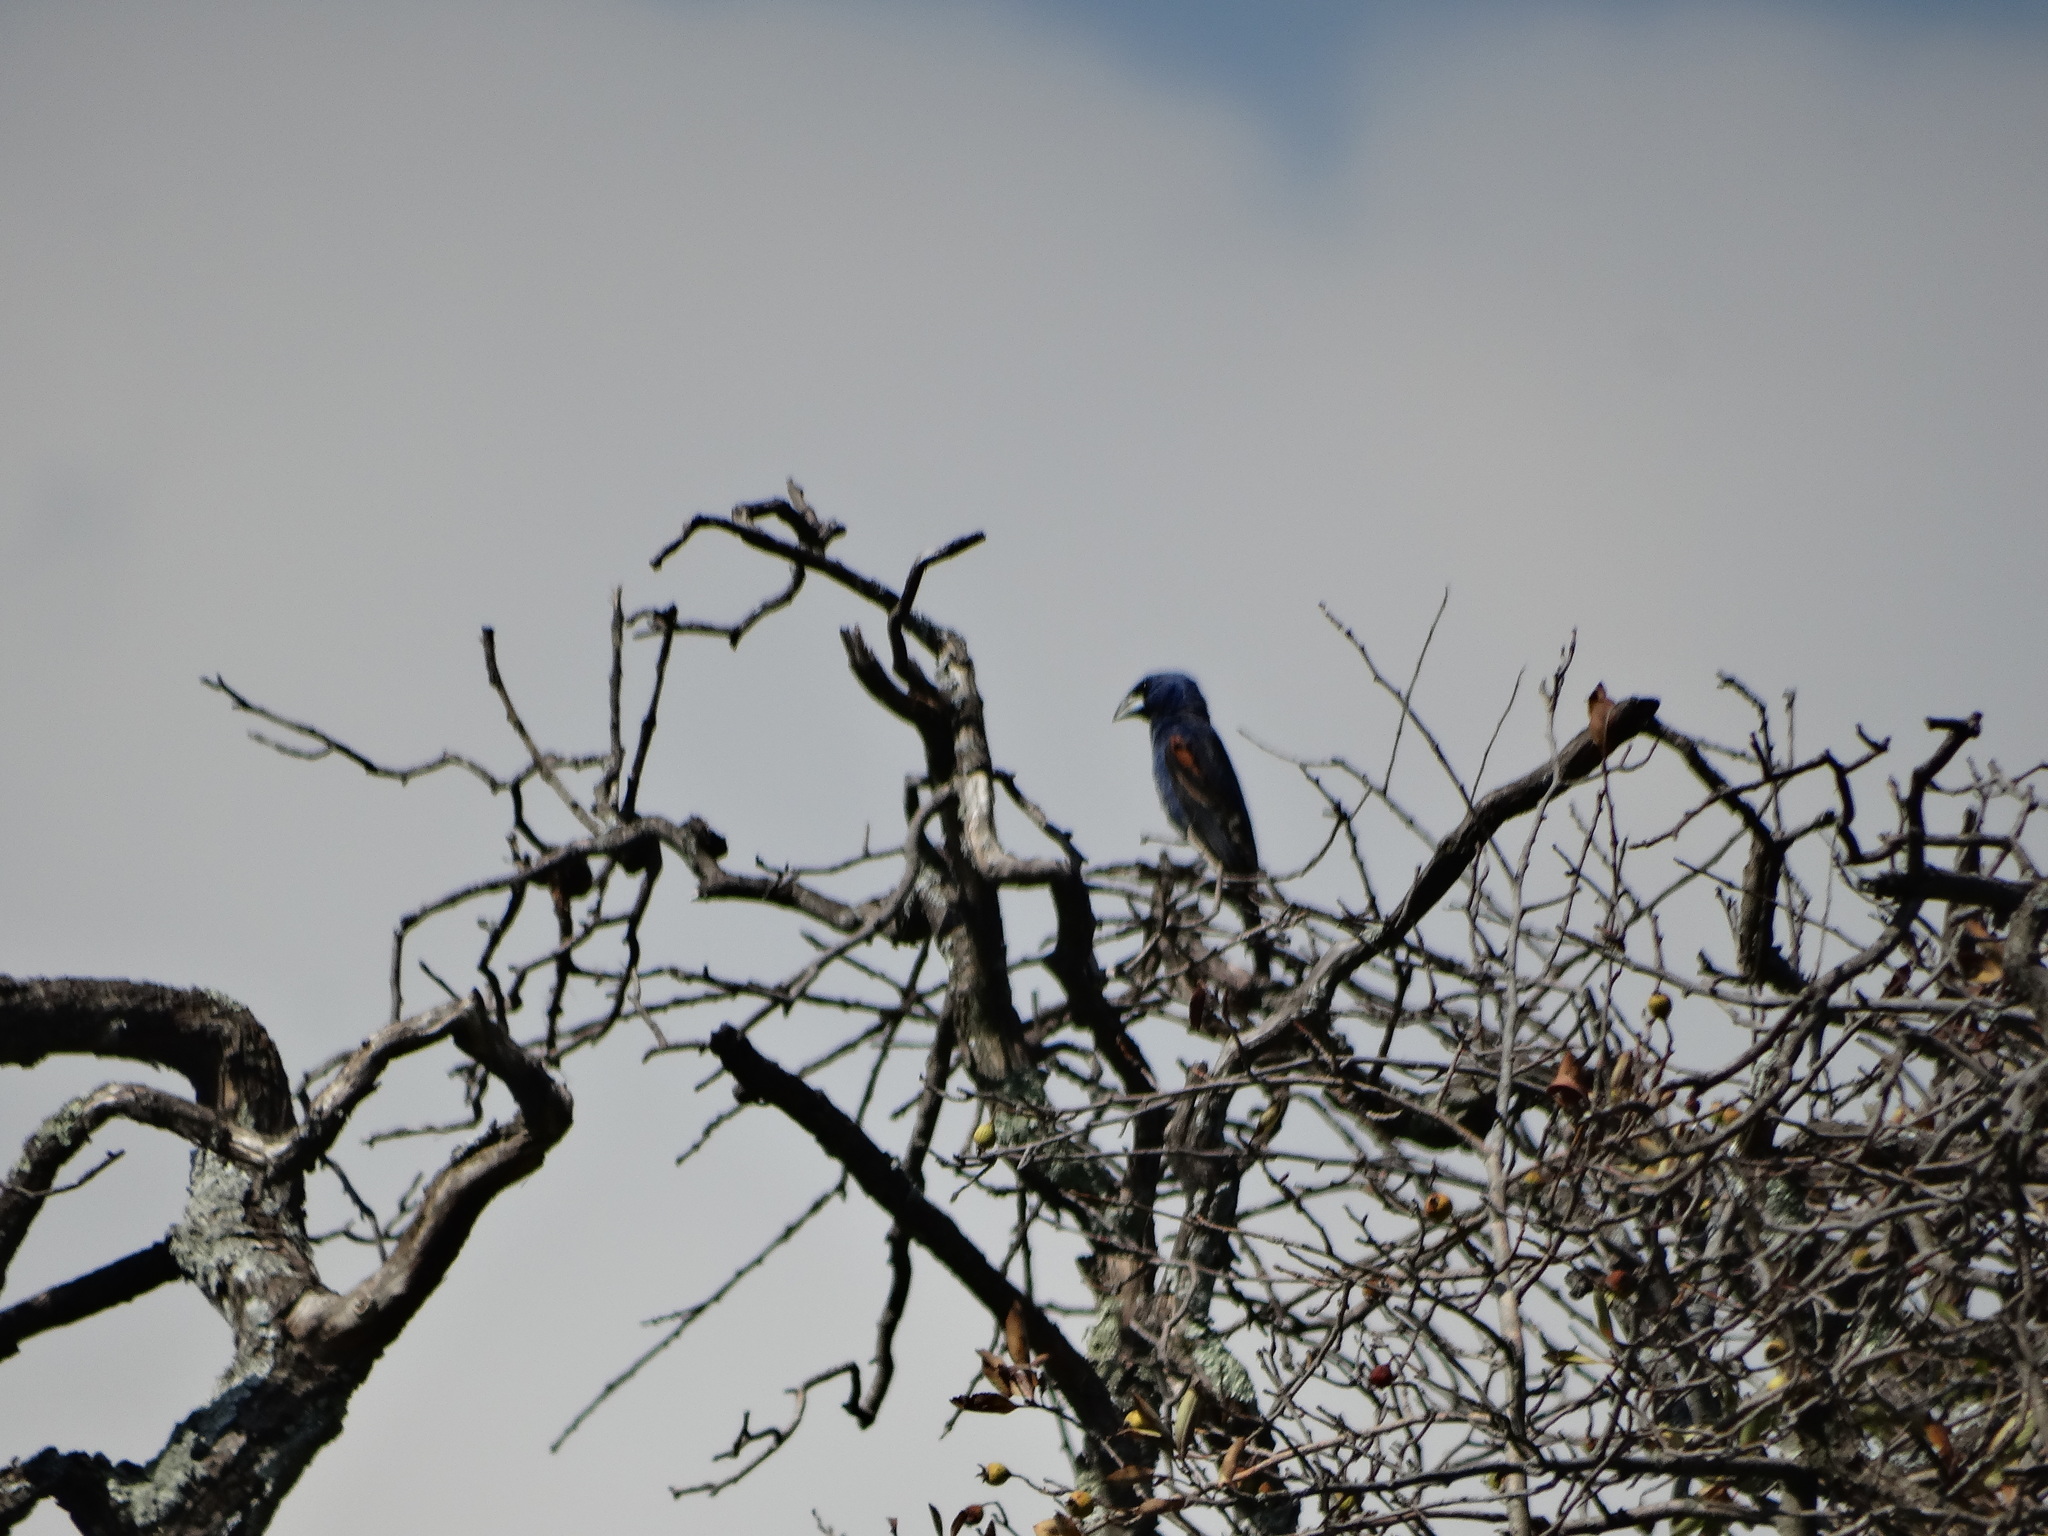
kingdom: Animalia
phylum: Chordata
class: Aves
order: Passeriformes
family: Cardinalidae
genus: Passerina
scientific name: Passerina caerulea
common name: Blue grosbeak
